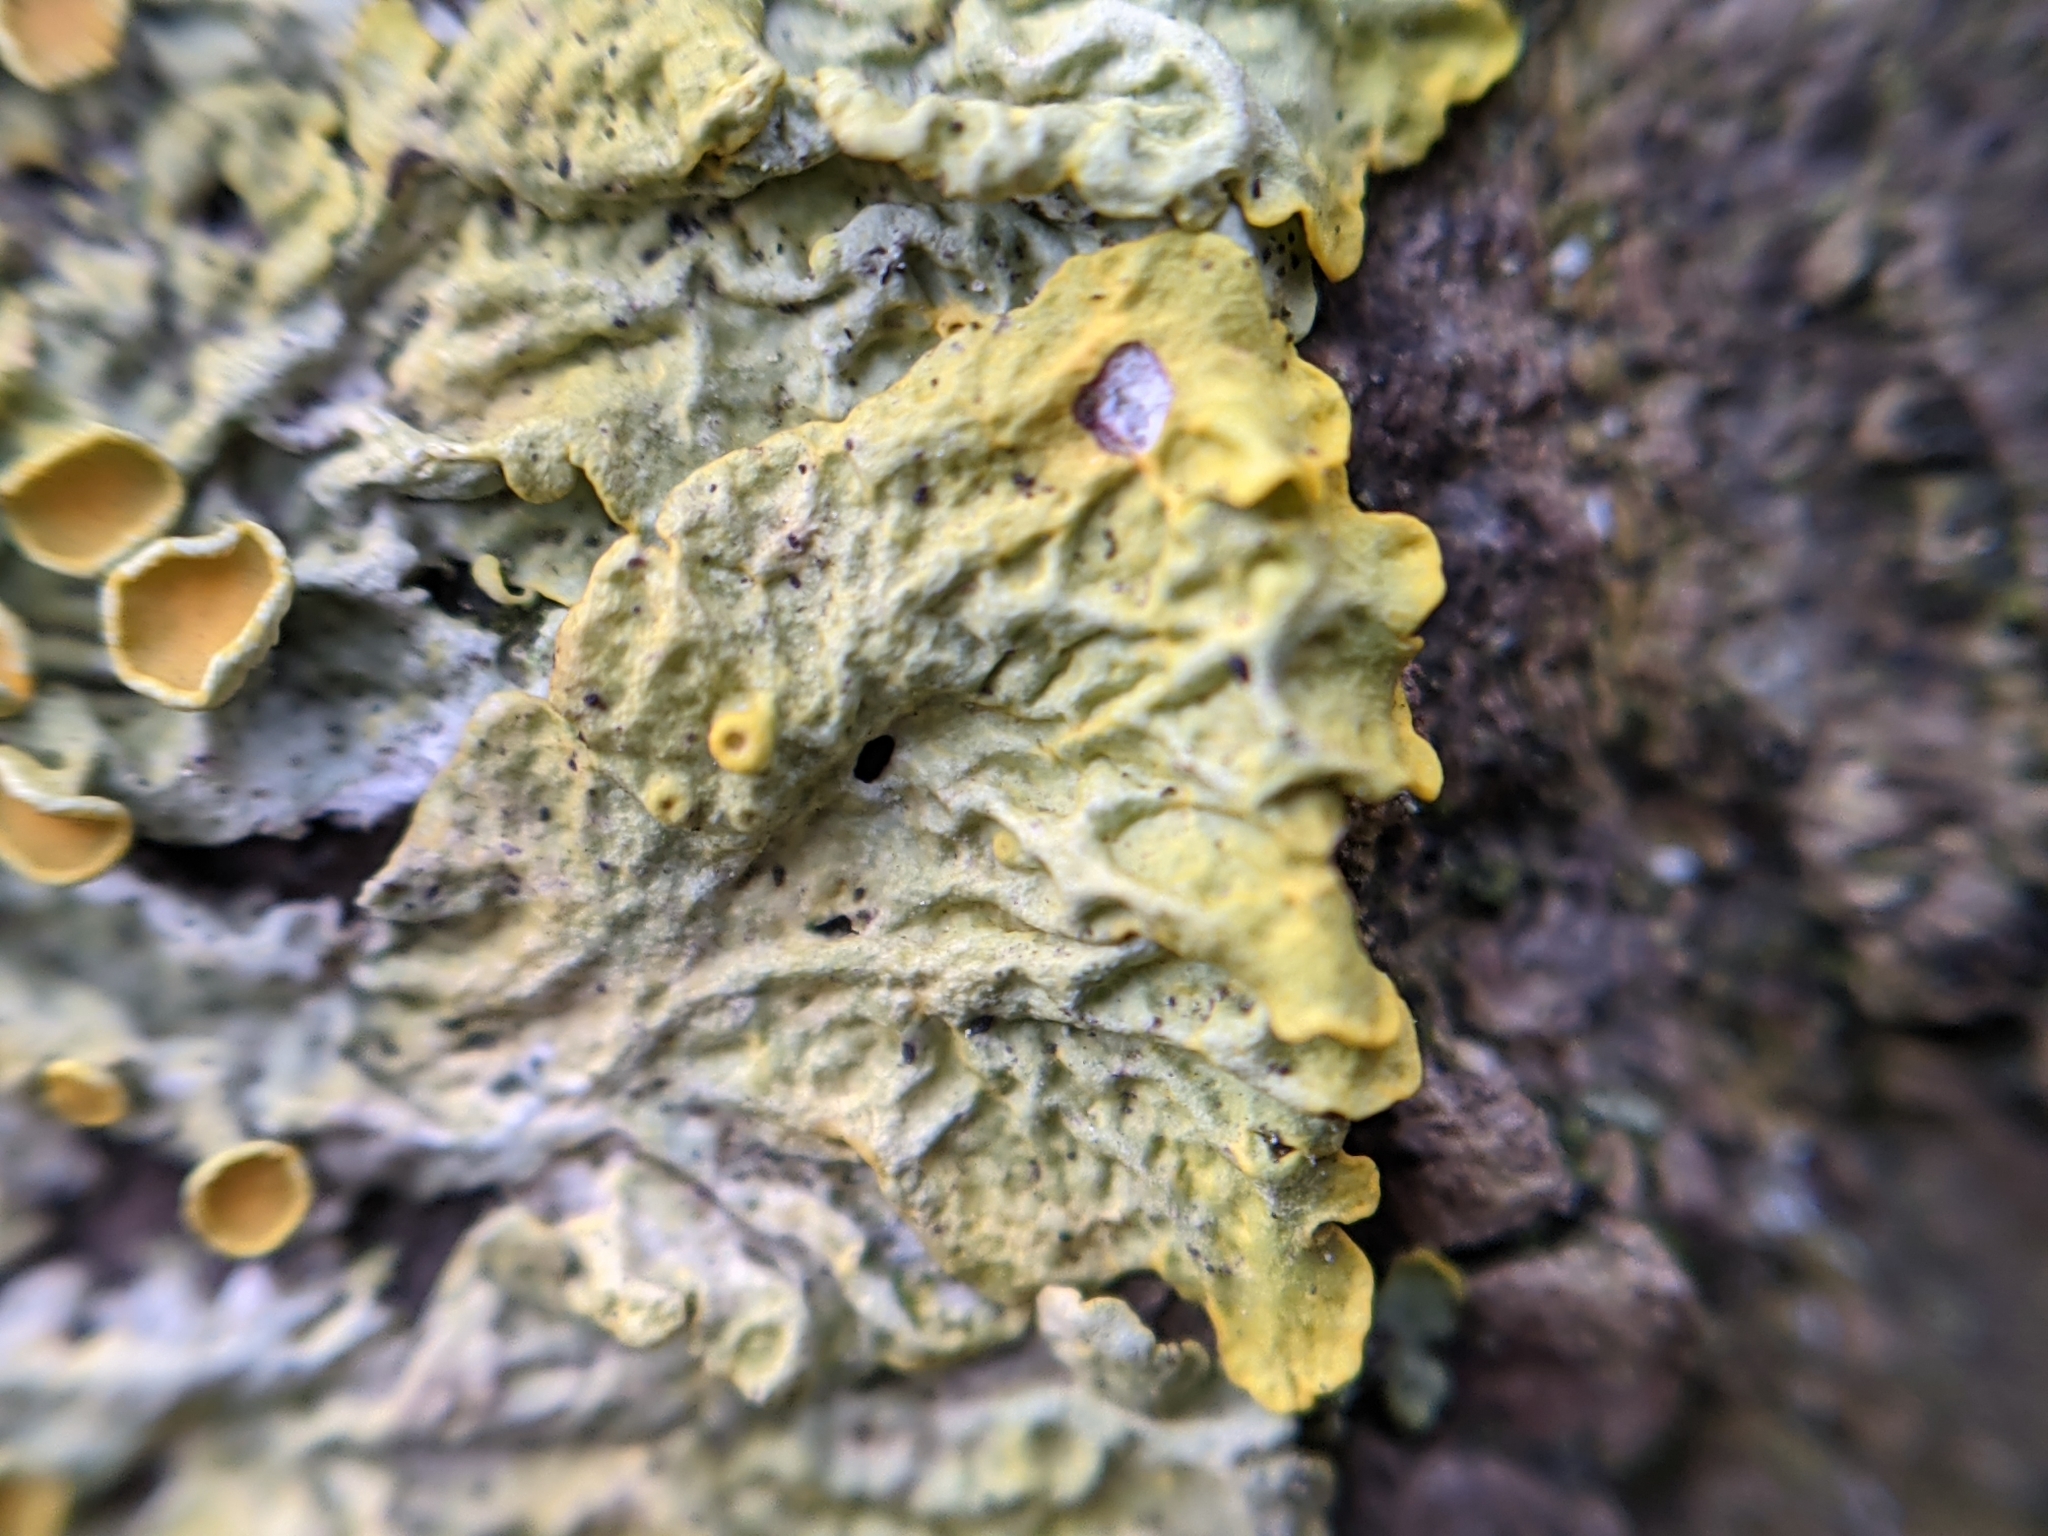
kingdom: Fungi
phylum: Ascomycota
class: Lecanoromycetes
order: Teloschistales
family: Teloschistaceae
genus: Xanthoria
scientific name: Xanthoria parietina
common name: Common orange lichen
